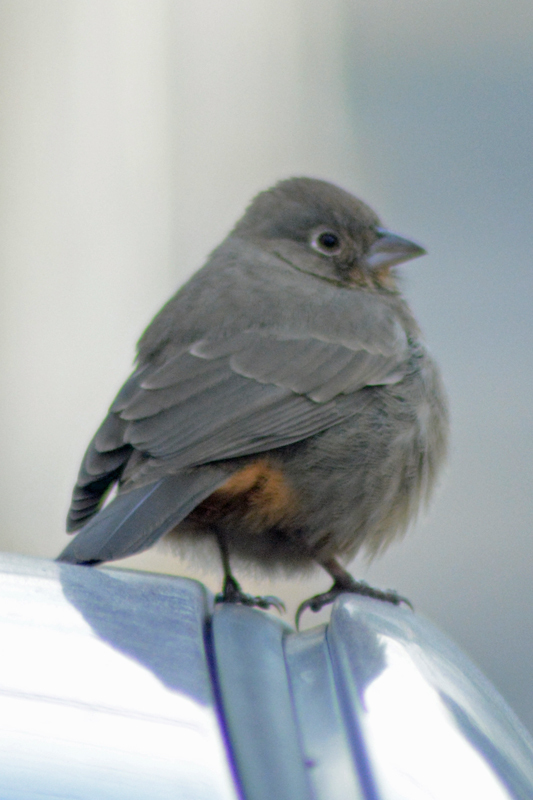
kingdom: Animalia
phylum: Chordata
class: Aves
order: Passeriformes
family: Passerellidae
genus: Melozone
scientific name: Melozone fusca
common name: Canyon towhee
